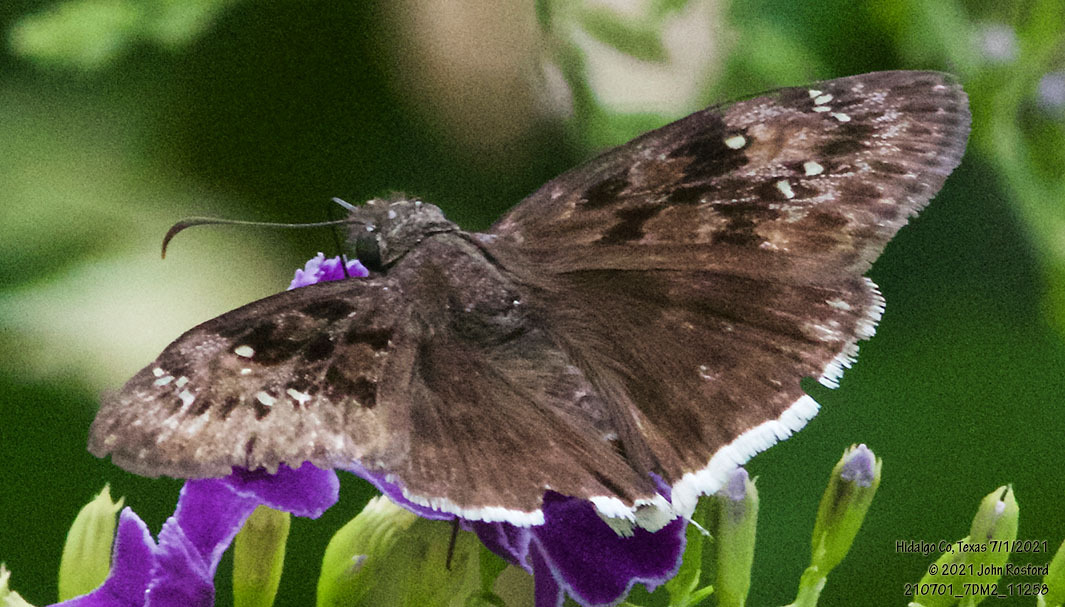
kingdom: Animalia
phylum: Arthropoda
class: Insecta
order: Lepidoptera
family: Hesperiidae
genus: Erynnis
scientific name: Erynnis tristis
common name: Mournful duskywing
